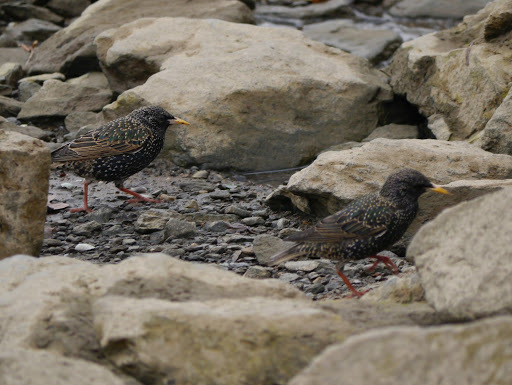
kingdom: Animalia
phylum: Chordata
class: Aves
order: Passeriformes
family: Sturnidae
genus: Sturnus
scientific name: Sturnus vulgaris
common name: Common starling
